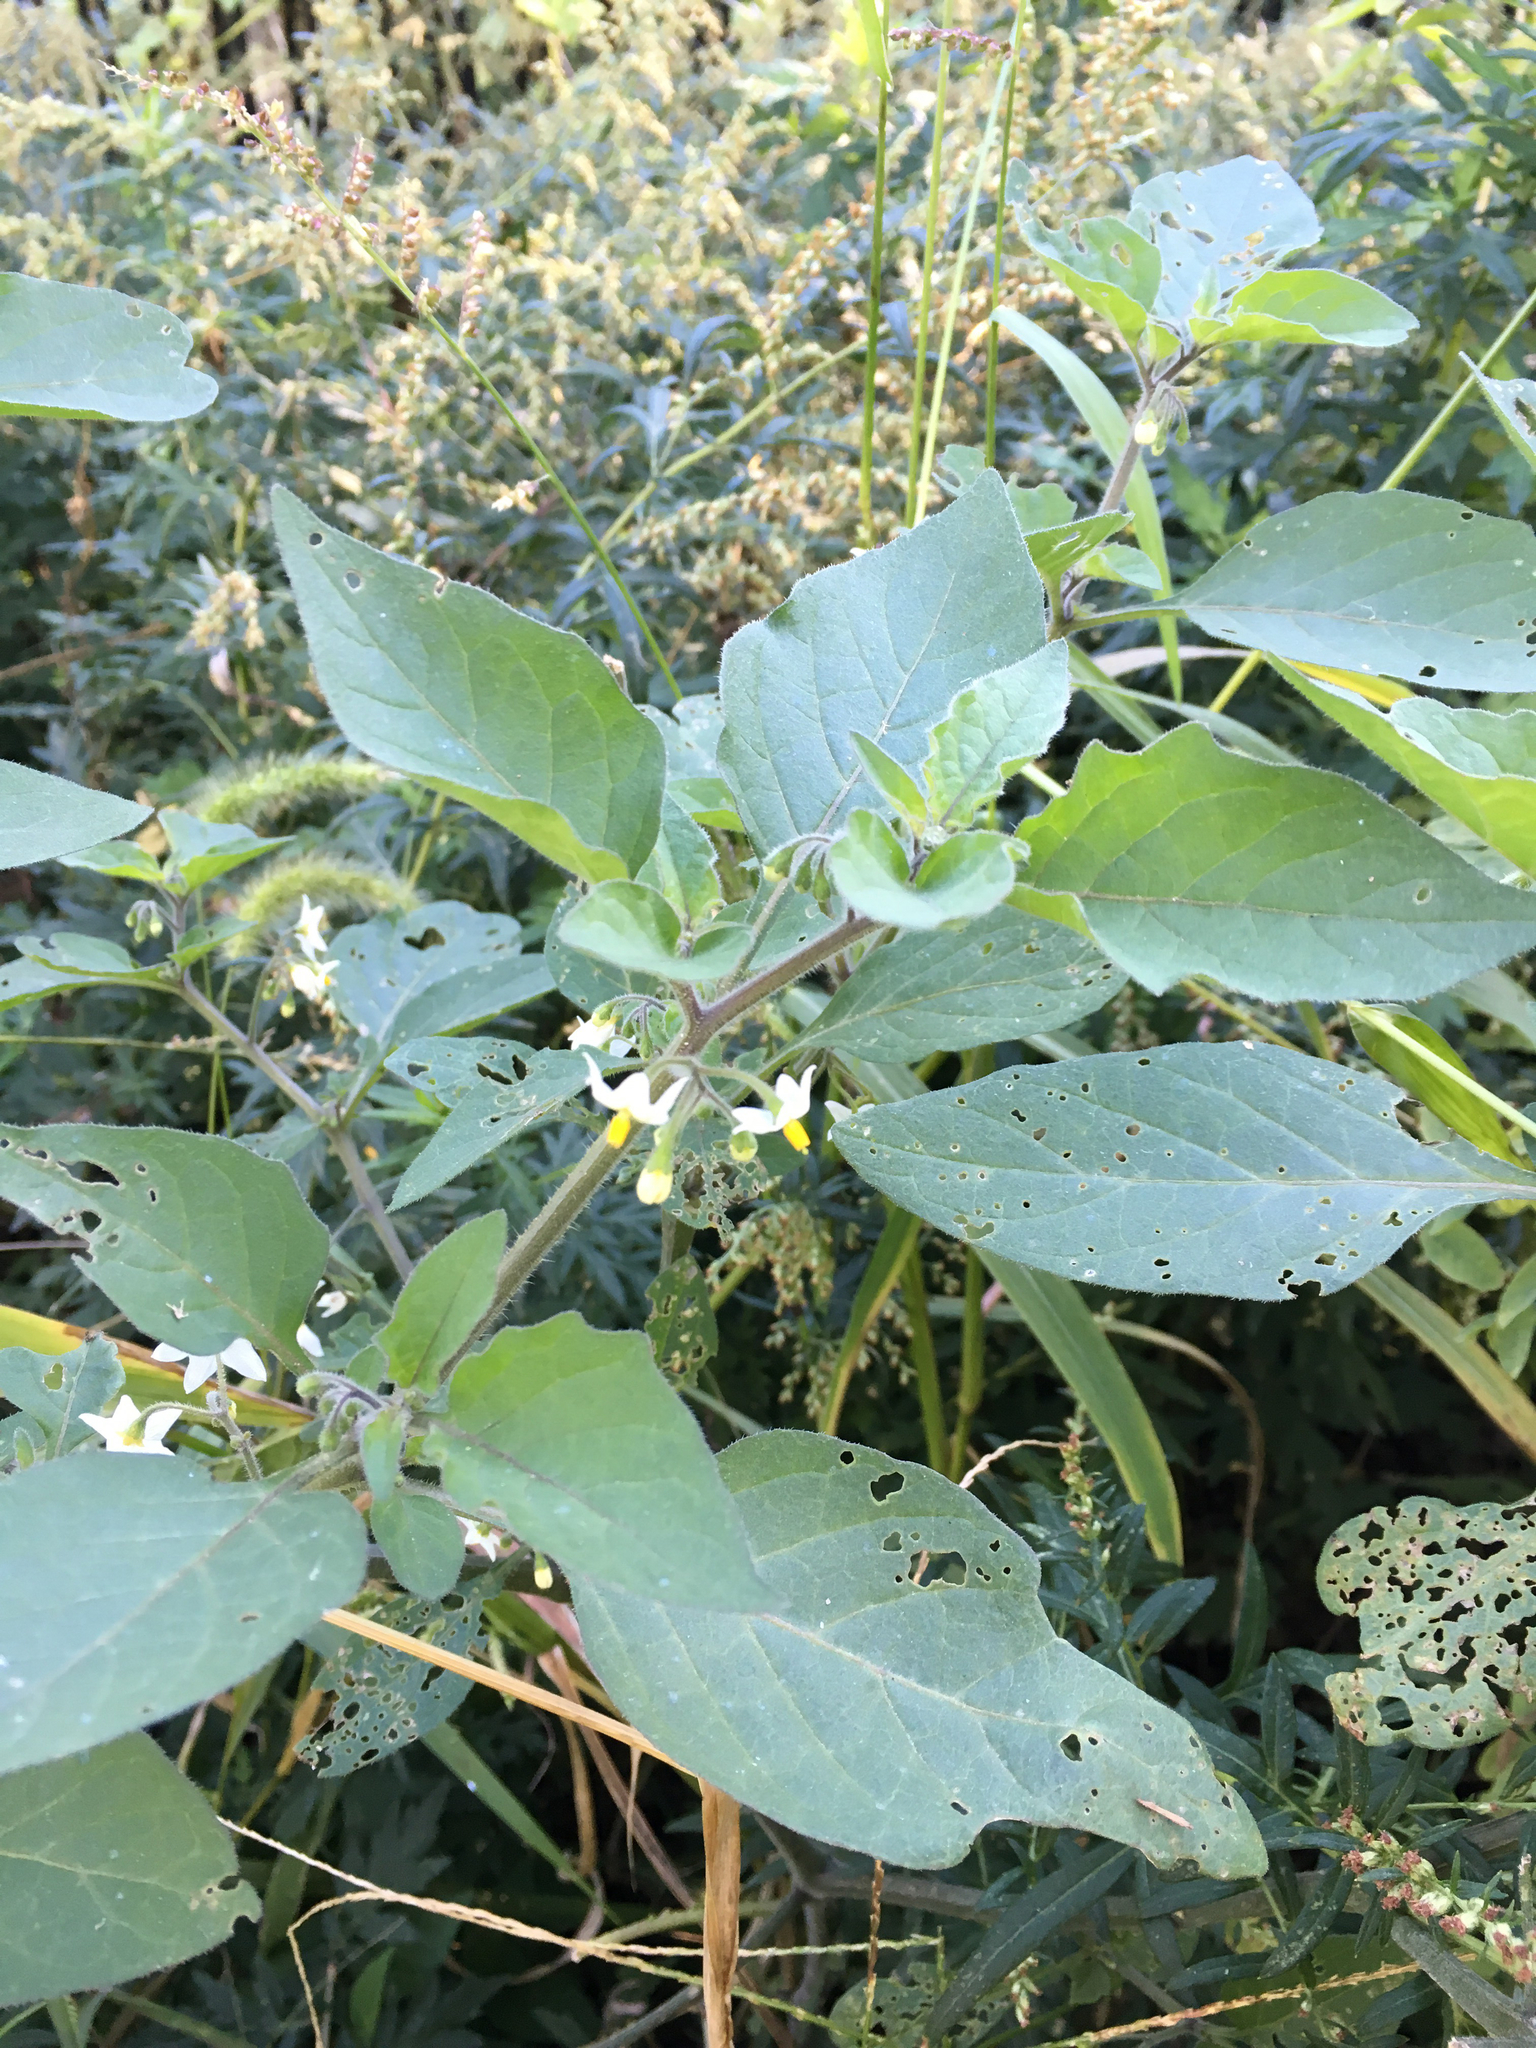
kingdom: Plantae
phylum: Tracheophyta
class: Magnoliopsida
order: Solanales
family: Solanaceae
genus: Solanum
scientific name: Solanum nigrum
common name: Black nightshade
